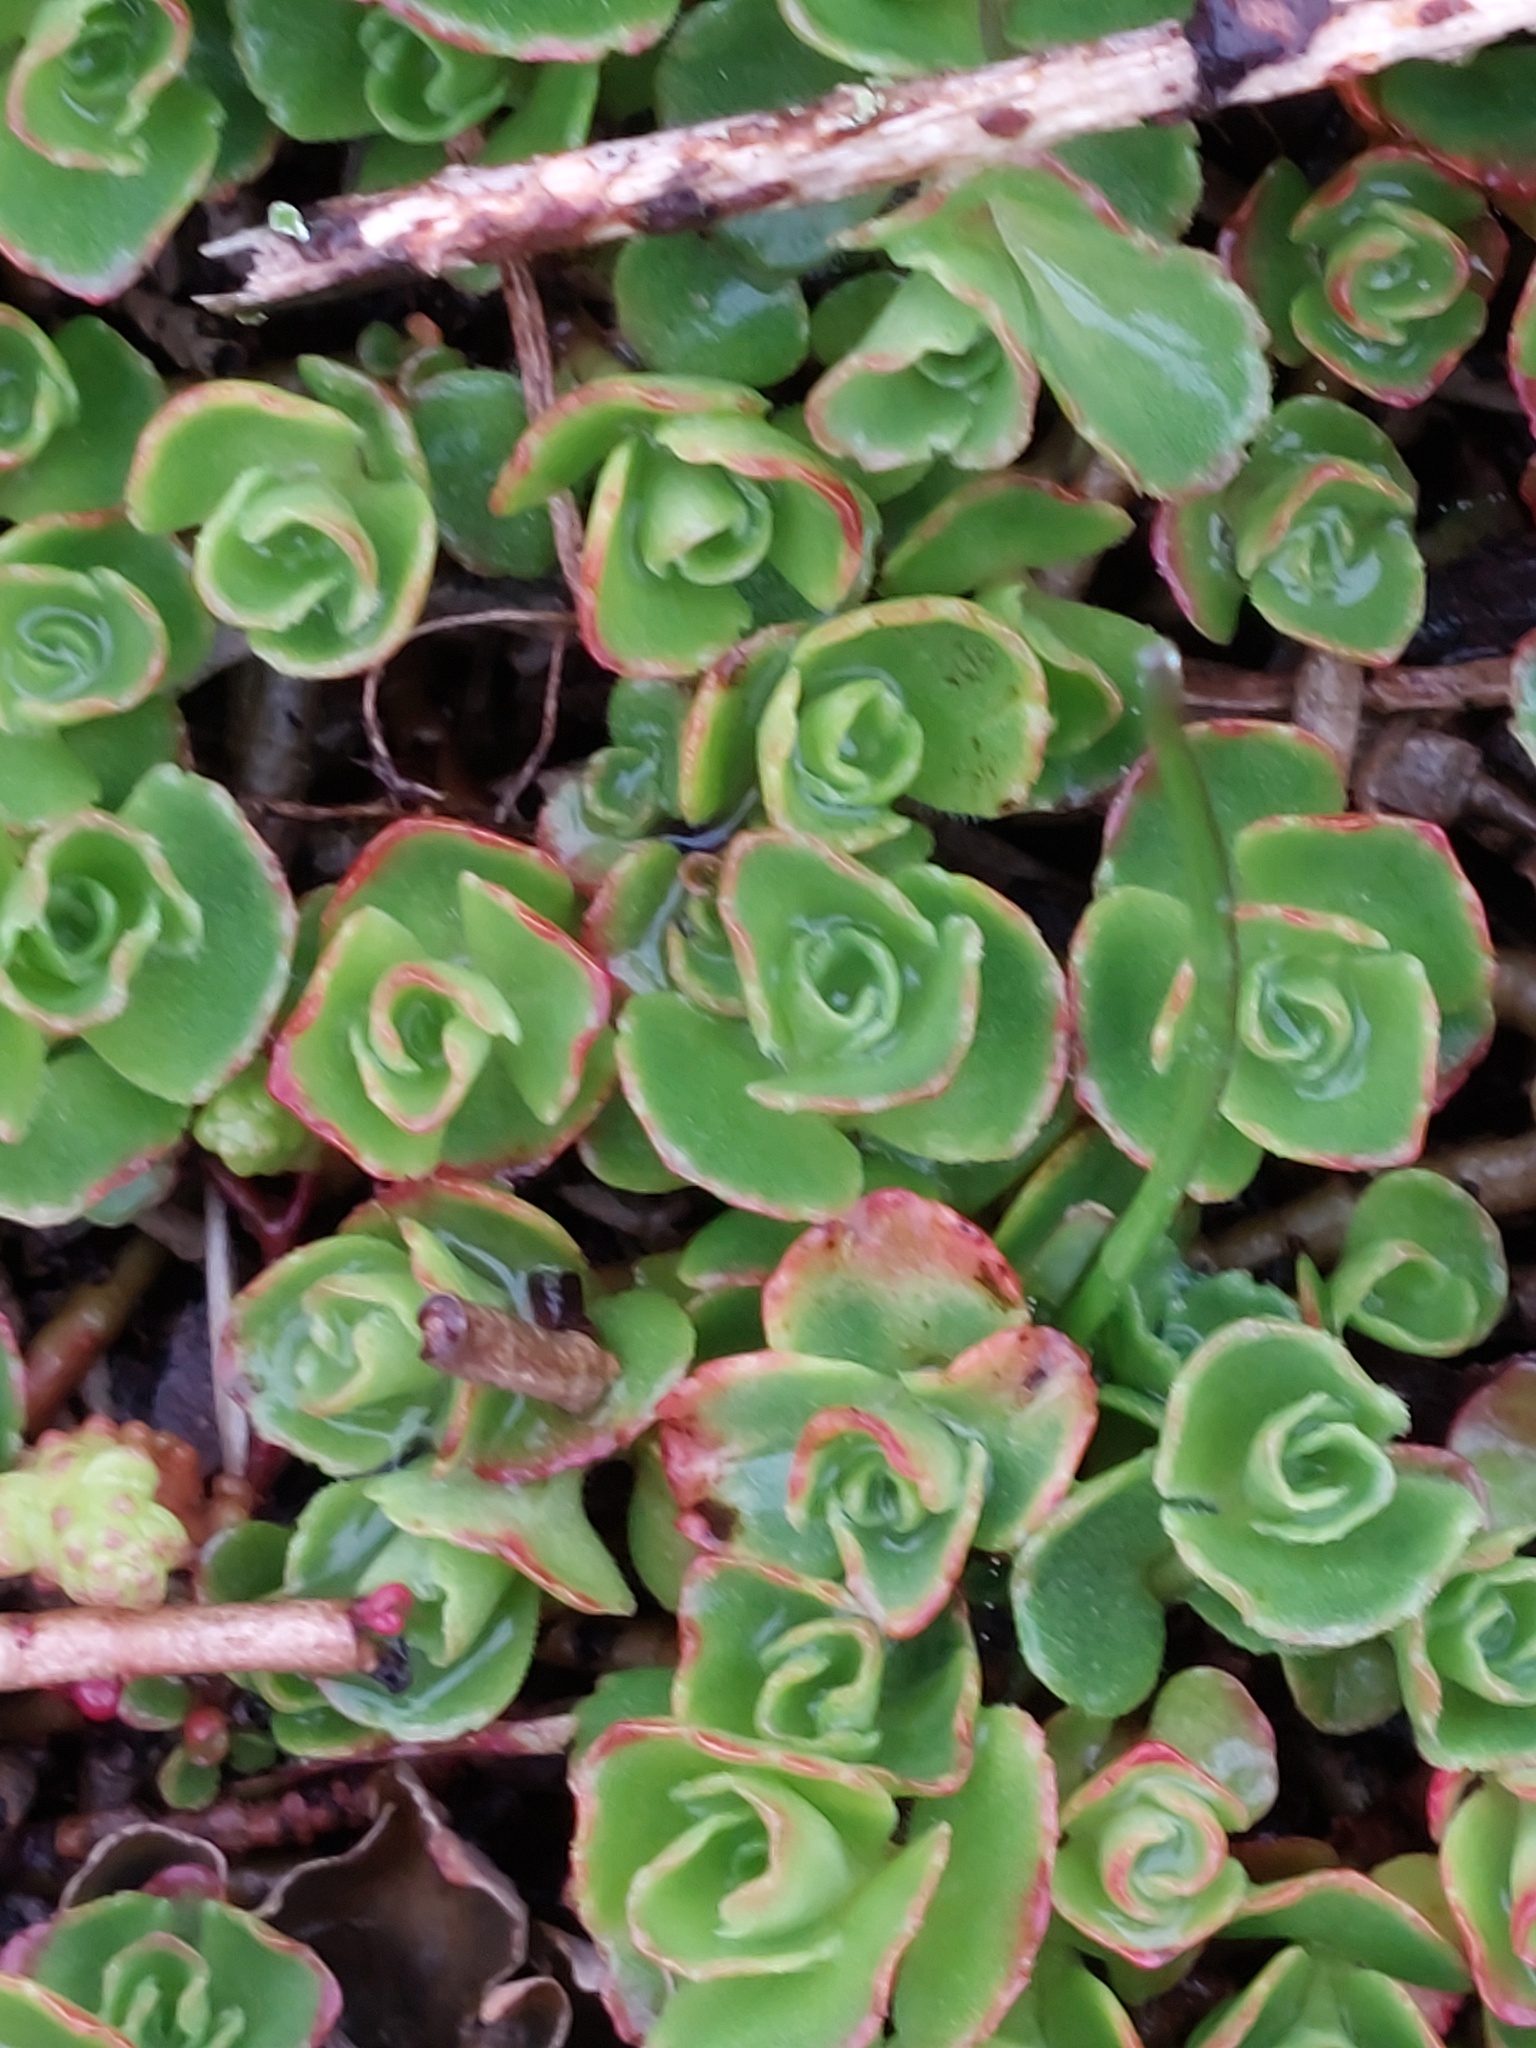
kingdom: Plantae
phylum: Tracheophyta
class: Magnoliopsida
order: Saxifragales
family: Crassulaceae
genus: Phedimus
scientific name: Phedimus spurius
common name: Caucasian stonecrop
